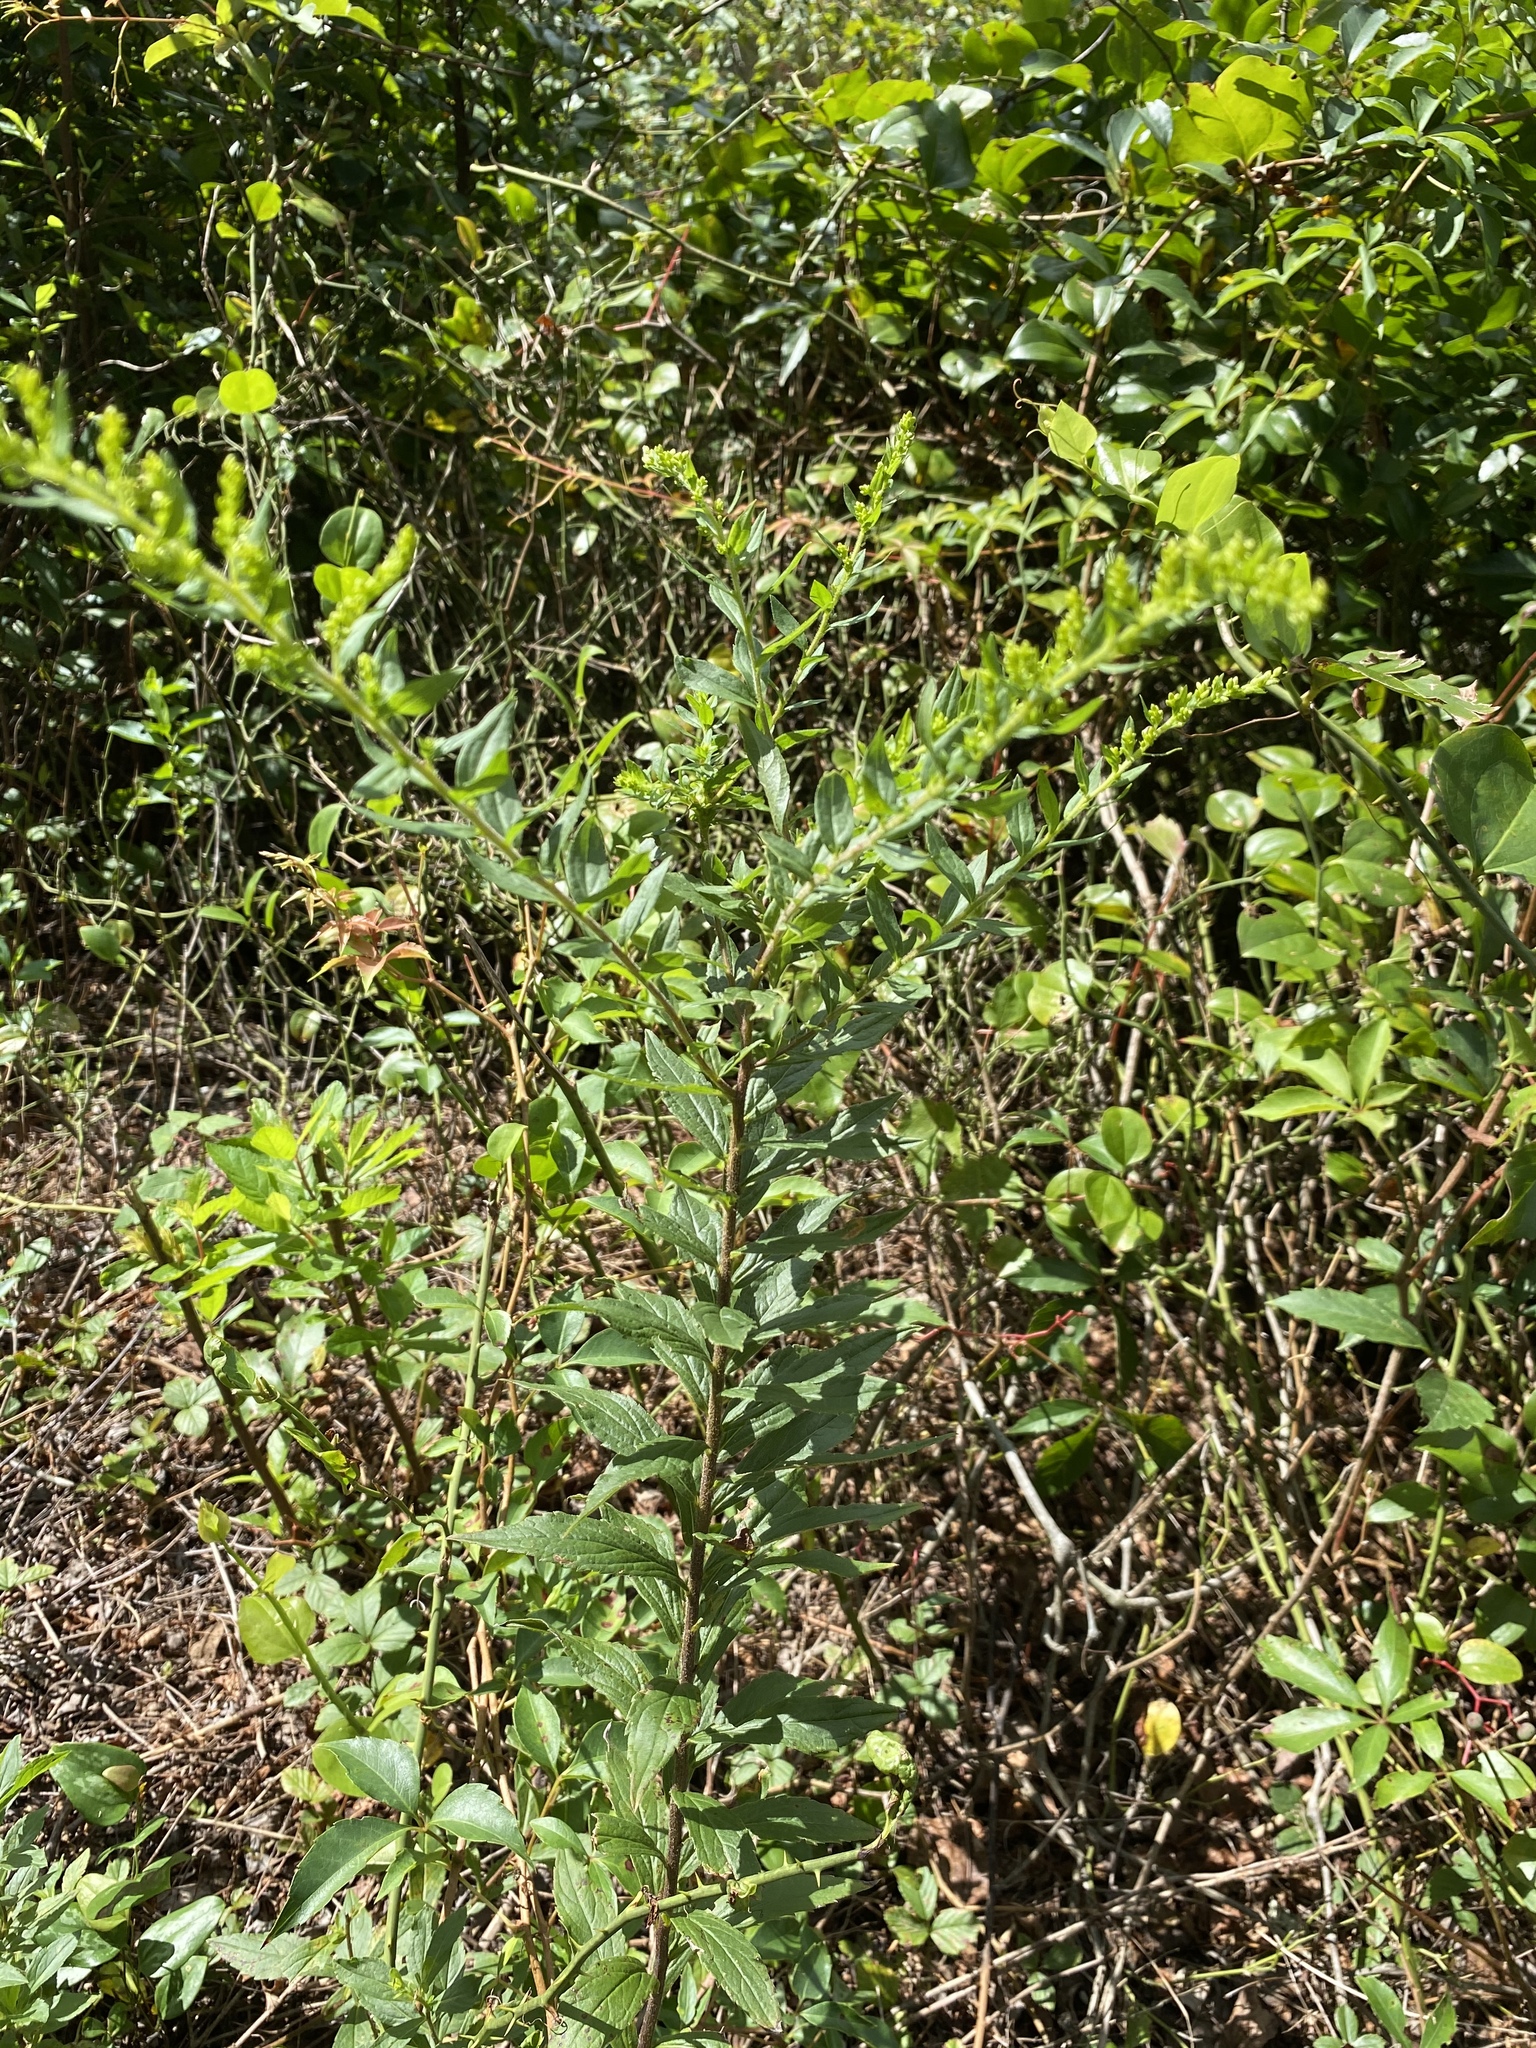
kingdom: Plantae
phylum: Tracheophyta
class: Magnoliopsida
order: Asterales
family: Asteraceae
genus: Solidago
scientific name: Solidago rugosa
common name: Rough-stemmed goldenrod
